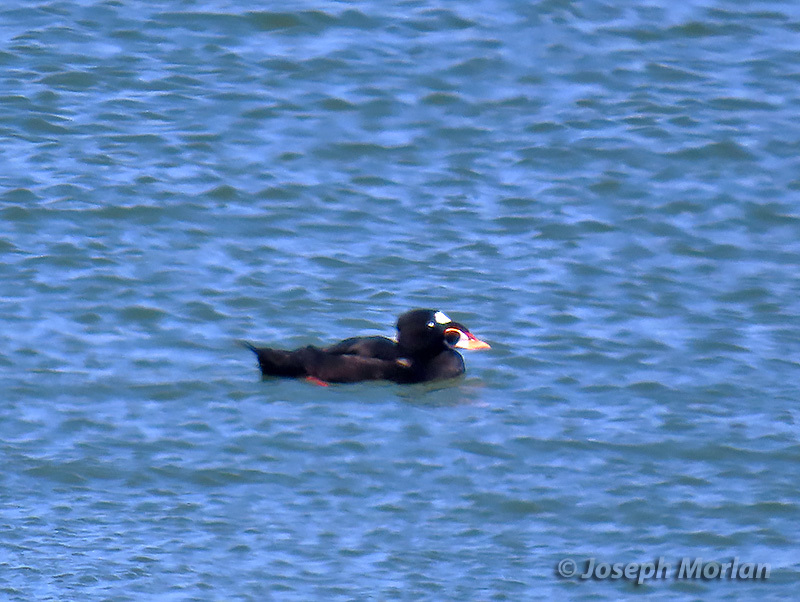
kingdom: Animalia
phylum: Chordata
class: Aves
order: Anseriformes
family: Anatidae
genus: Melanitta
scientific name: Melanitta perspicillata
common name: Surf scoter
